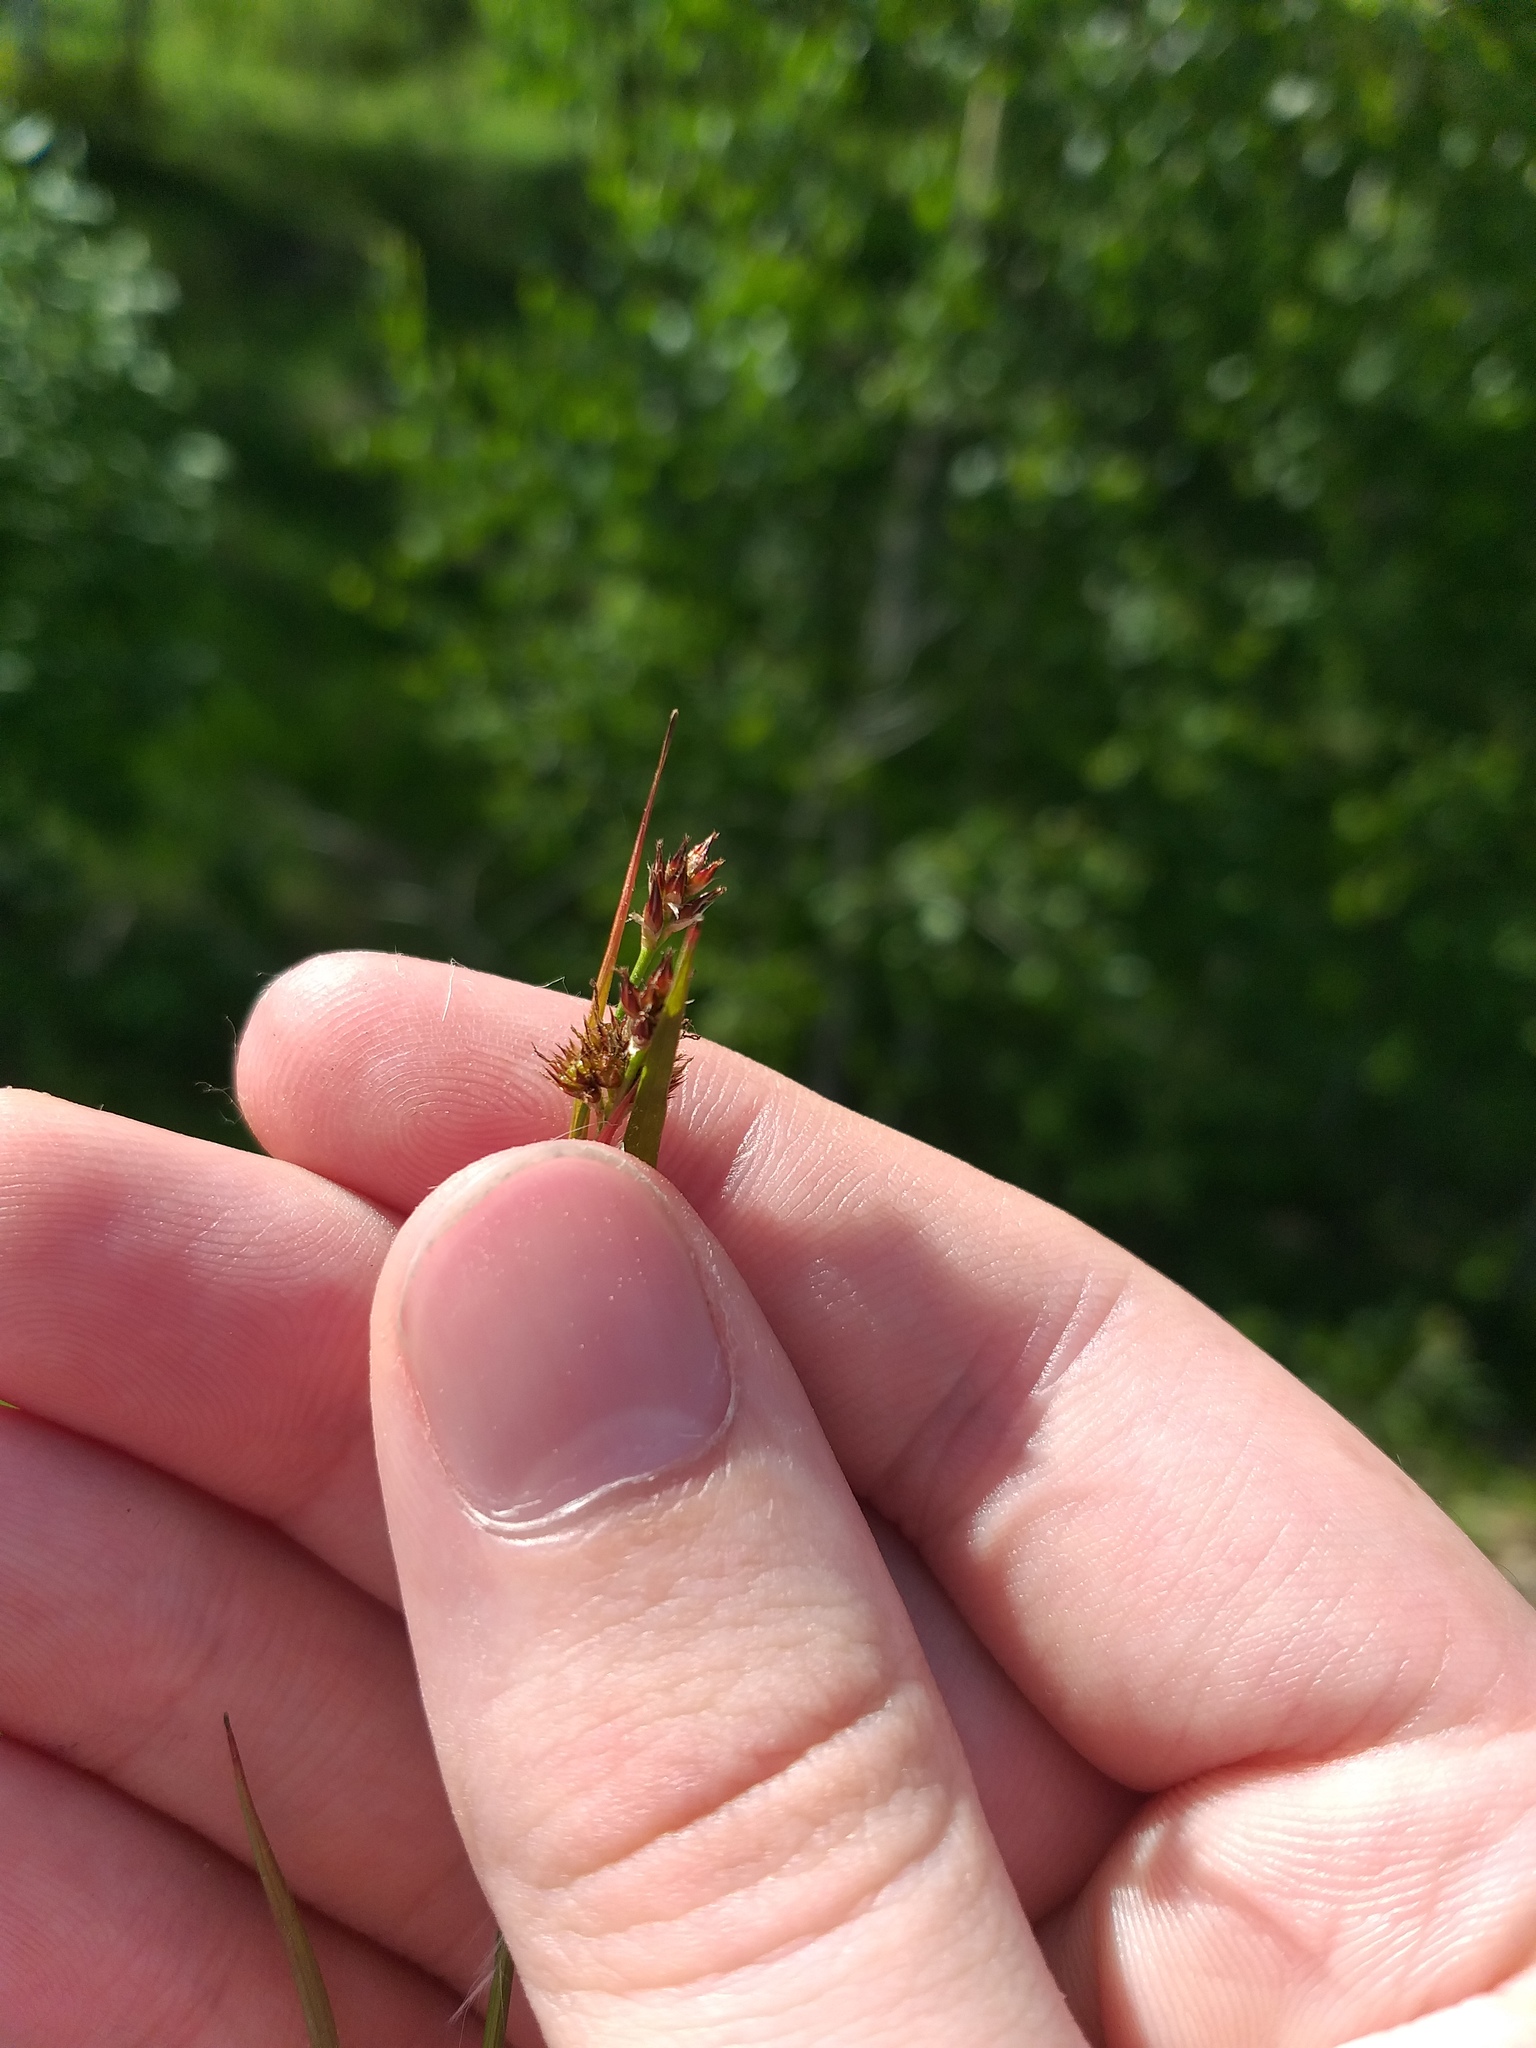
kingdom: Plantae
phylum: Tracheophyta
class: Liliopsida
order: Poales
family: Juncaceae
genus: Luzula
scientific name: Luzula multiflora
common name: Heath wood-rush
